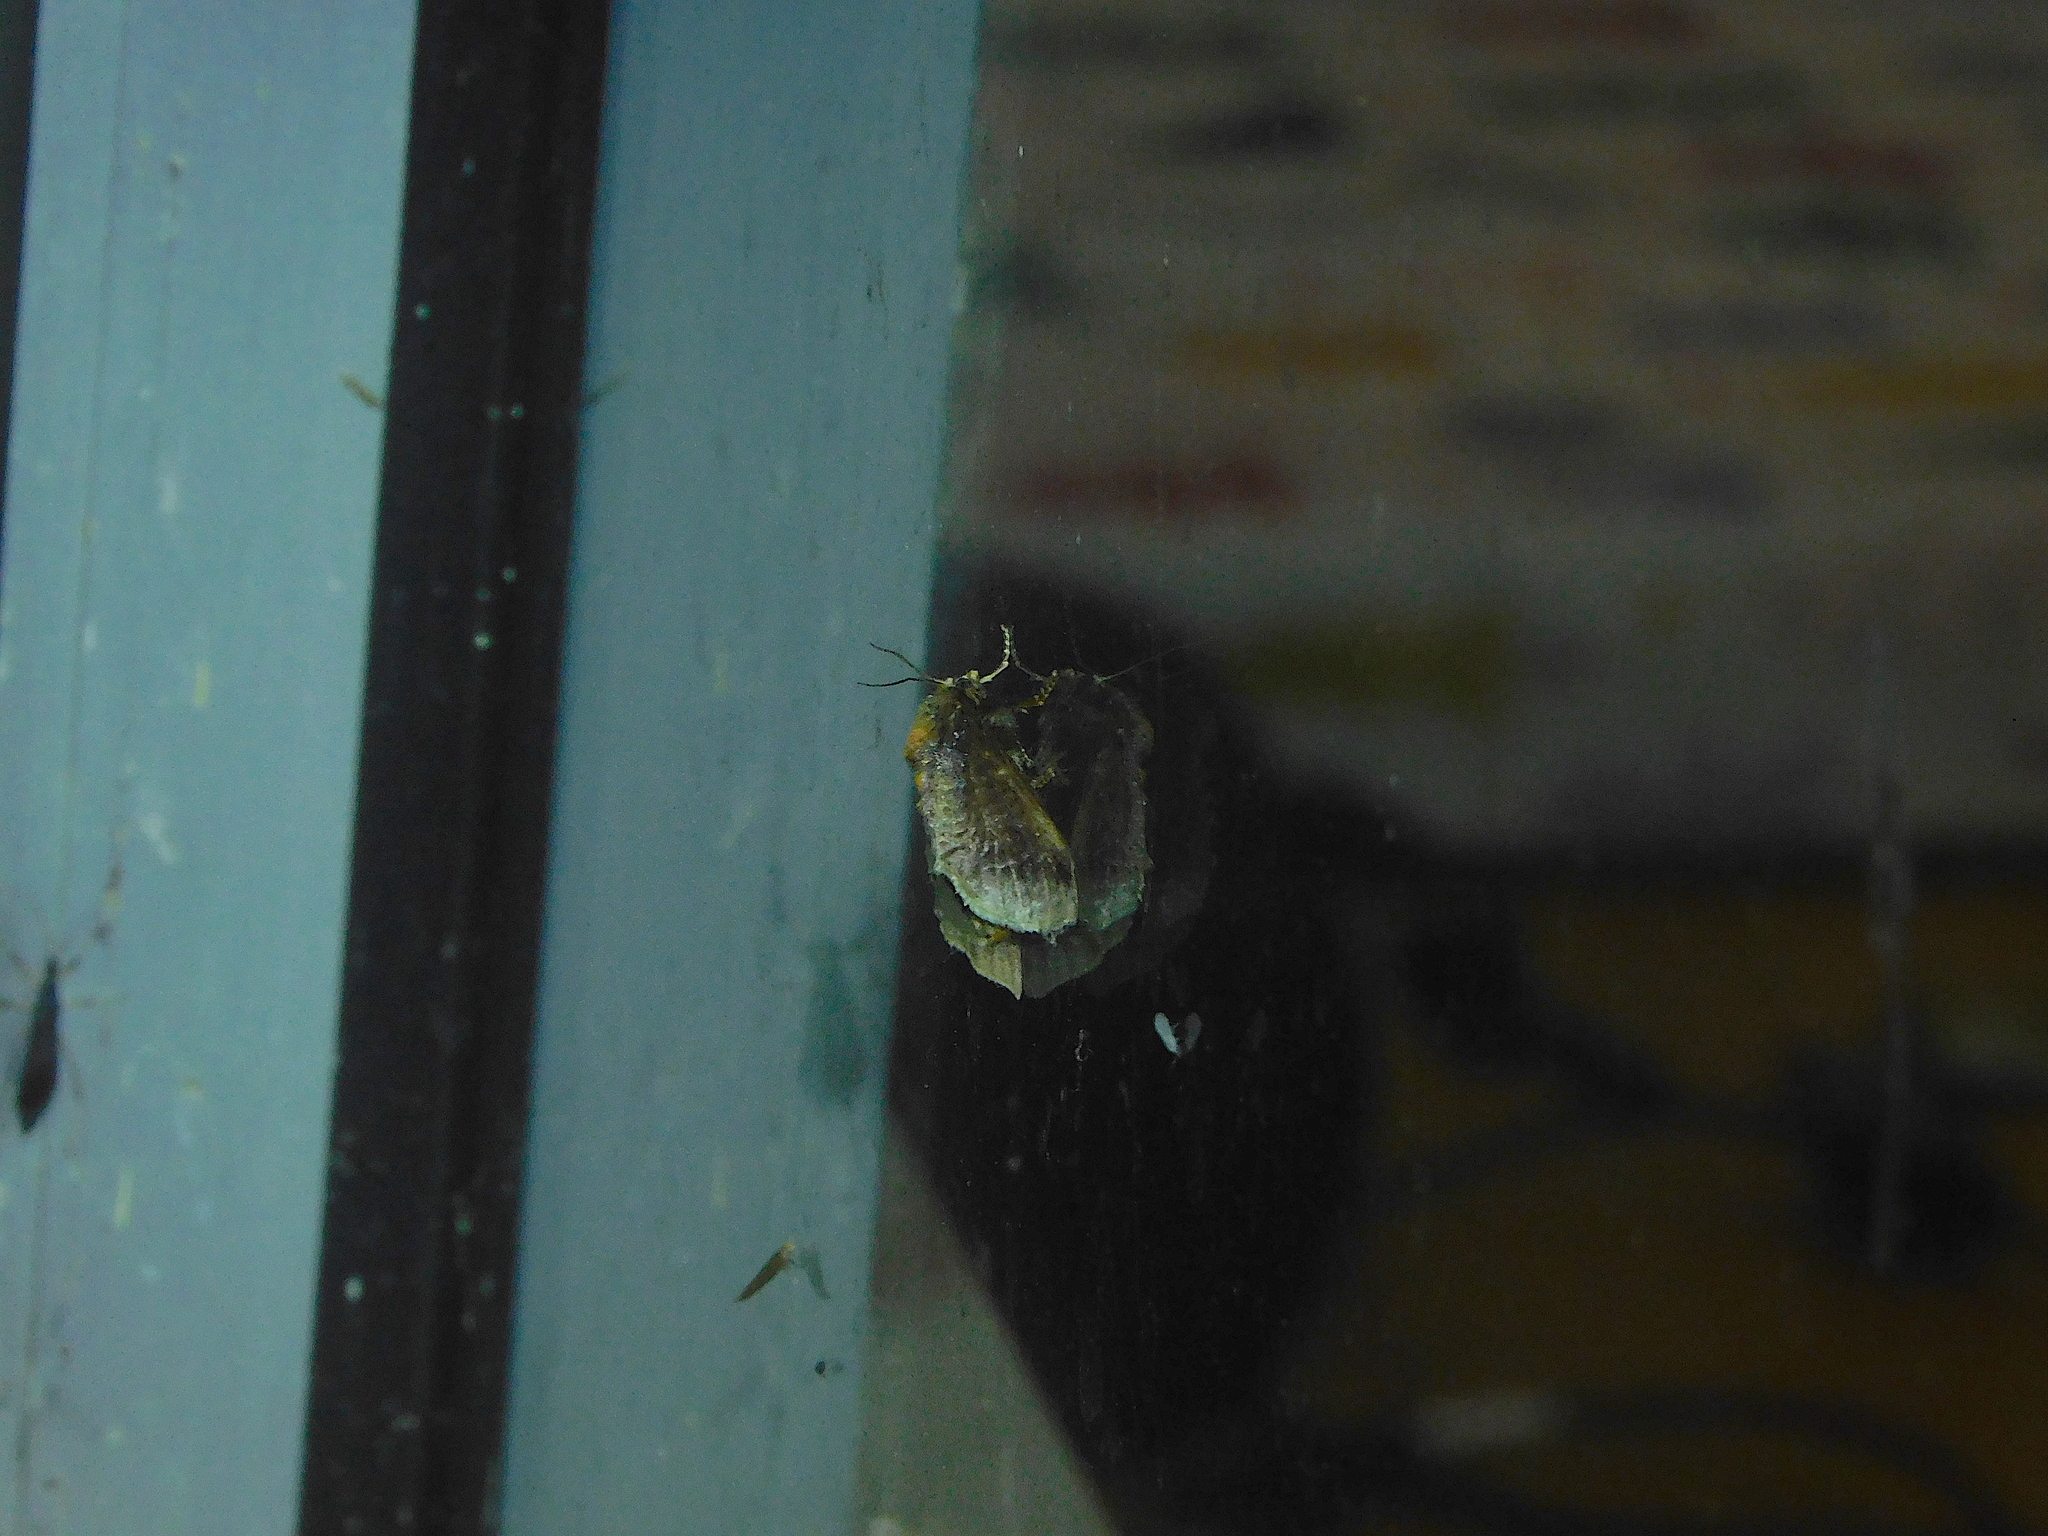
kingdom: Animalia
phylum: Arthropoda
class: Insecta
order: Lepidoptera
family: Limacodidae
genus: Doratifera
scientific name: Doratifera oxleyi
